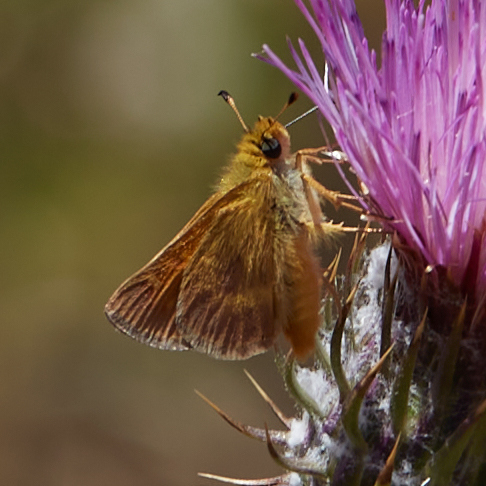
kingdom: Animalia
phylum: Arthropoda
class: Insecta
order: Lepidoptera
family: Hesperiidae
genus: Ochlodes
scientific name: Ochlodes agricola
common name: Rural skipper
